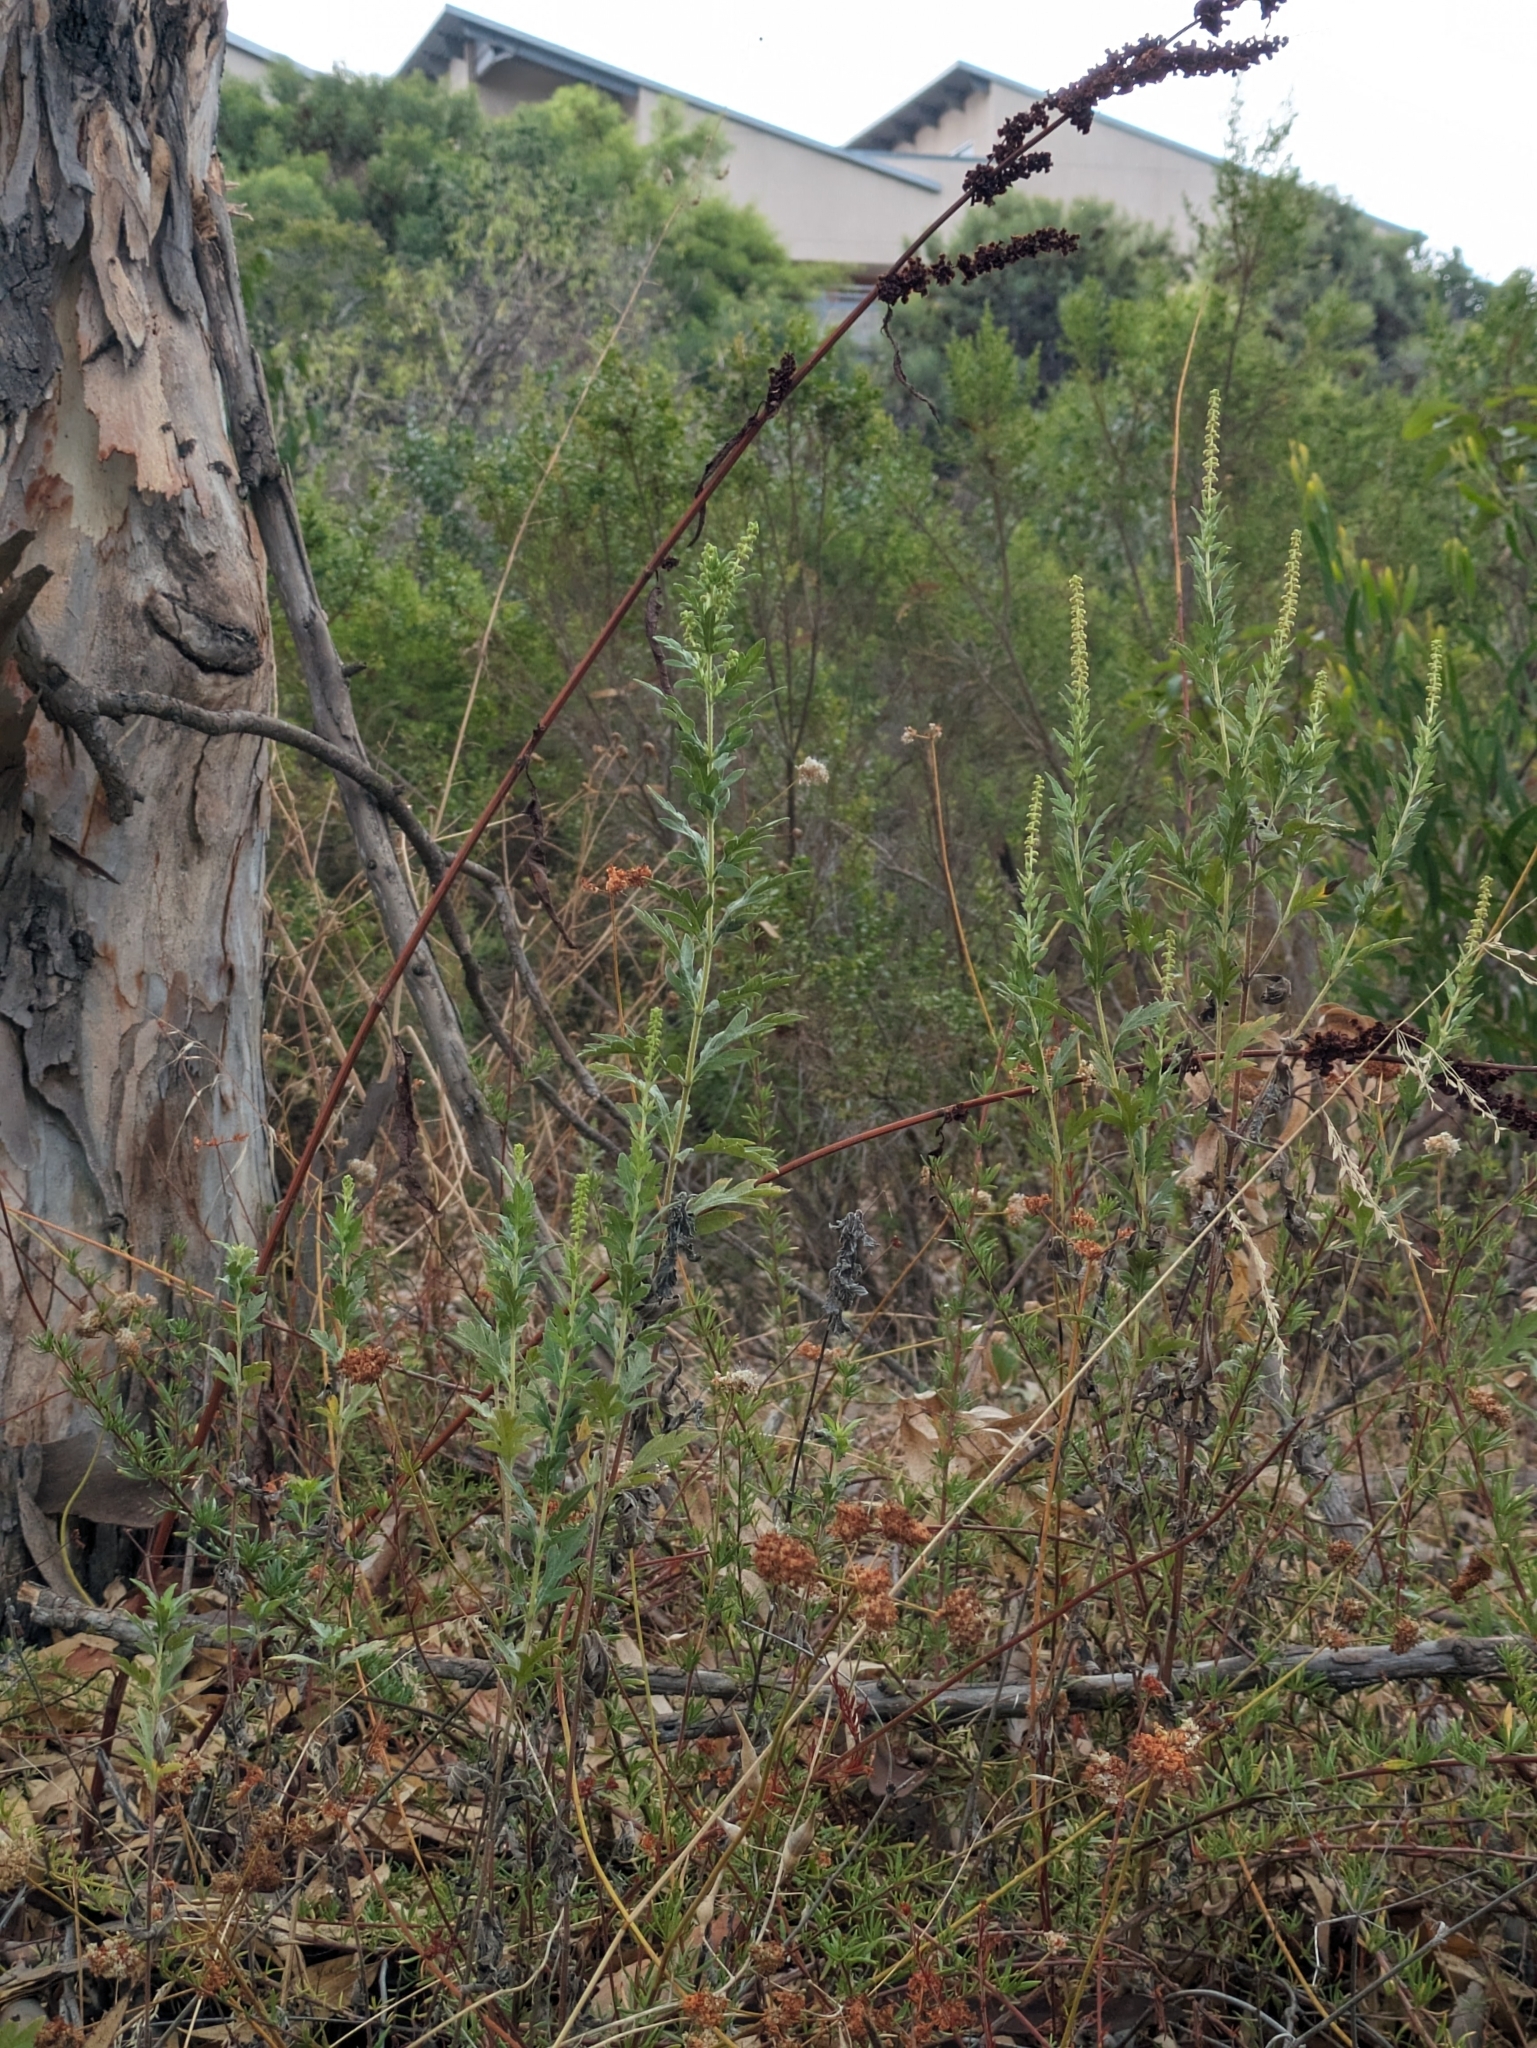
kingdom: Plantae
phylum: Tracheophyta
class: Magnoliopsida
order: Asterales
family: Asteraceae
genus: Ambrosia
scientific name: Ambrosia psilostachya
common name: Perennial ragweed
